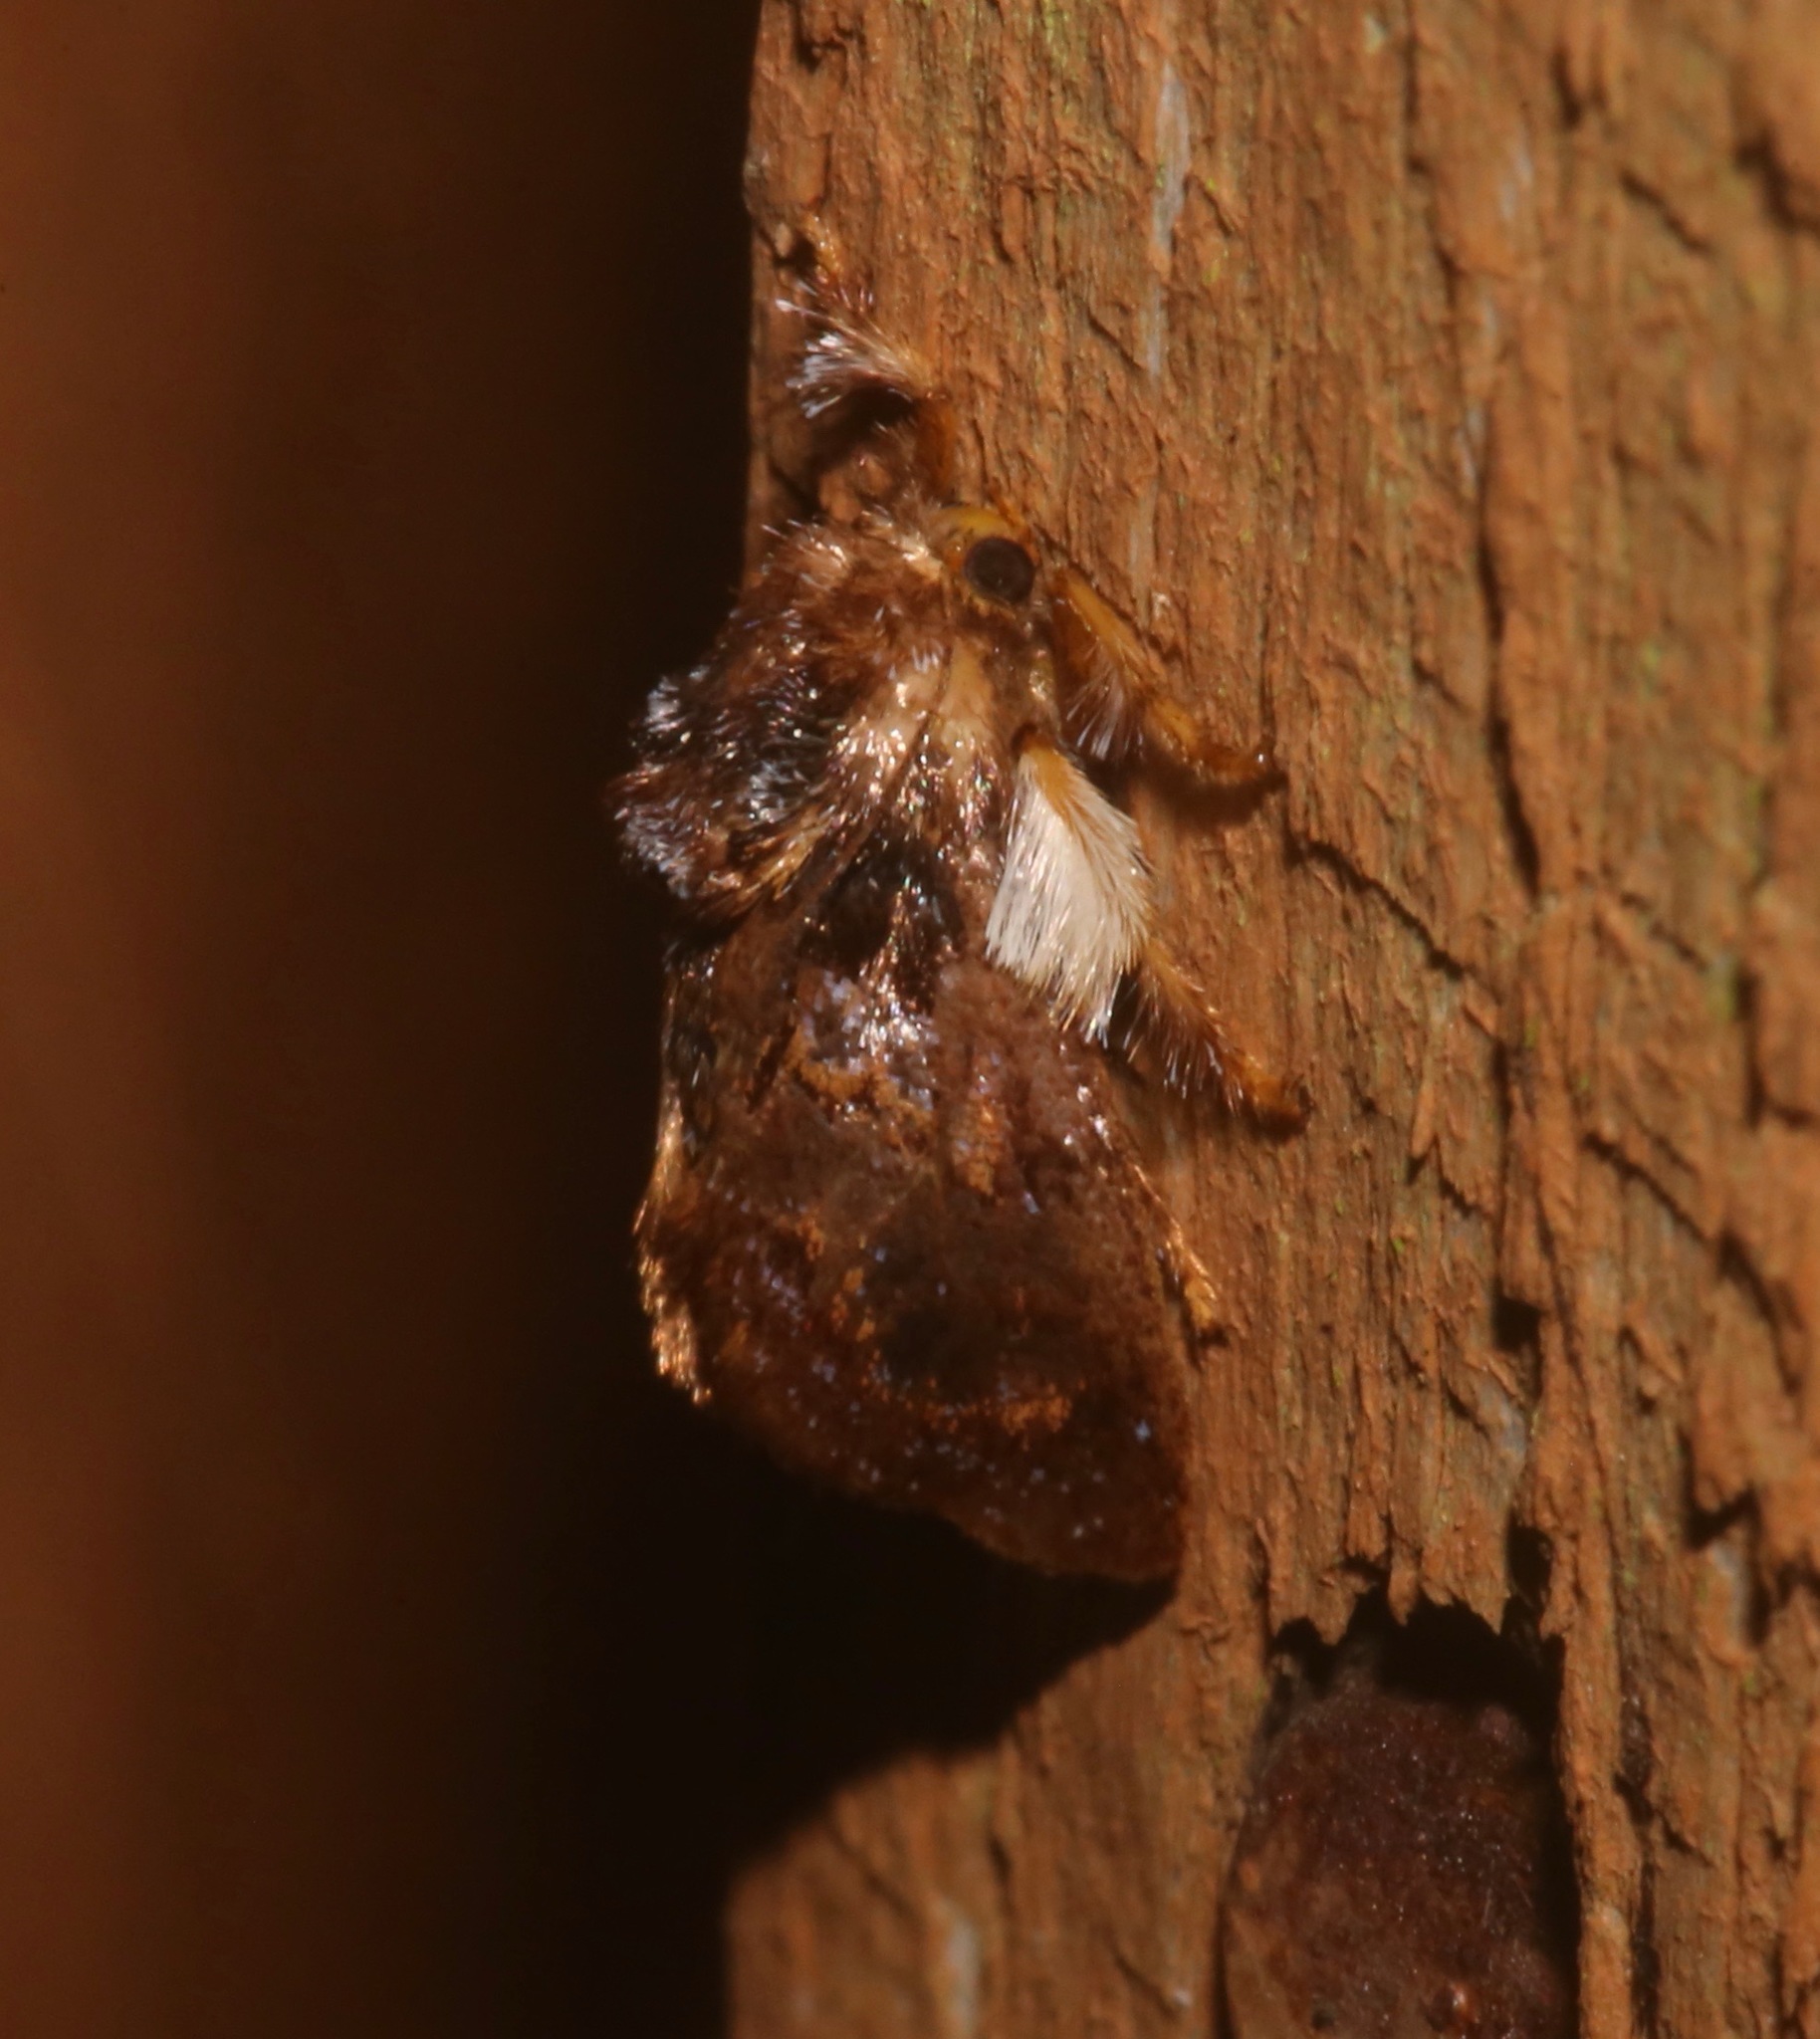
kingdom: Animalia
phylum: Arthropoda
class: Insecta
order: Lepidoptera
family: Limacodidae
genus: Phobetron
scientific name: Phobetron pithecium
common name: Hag moth
